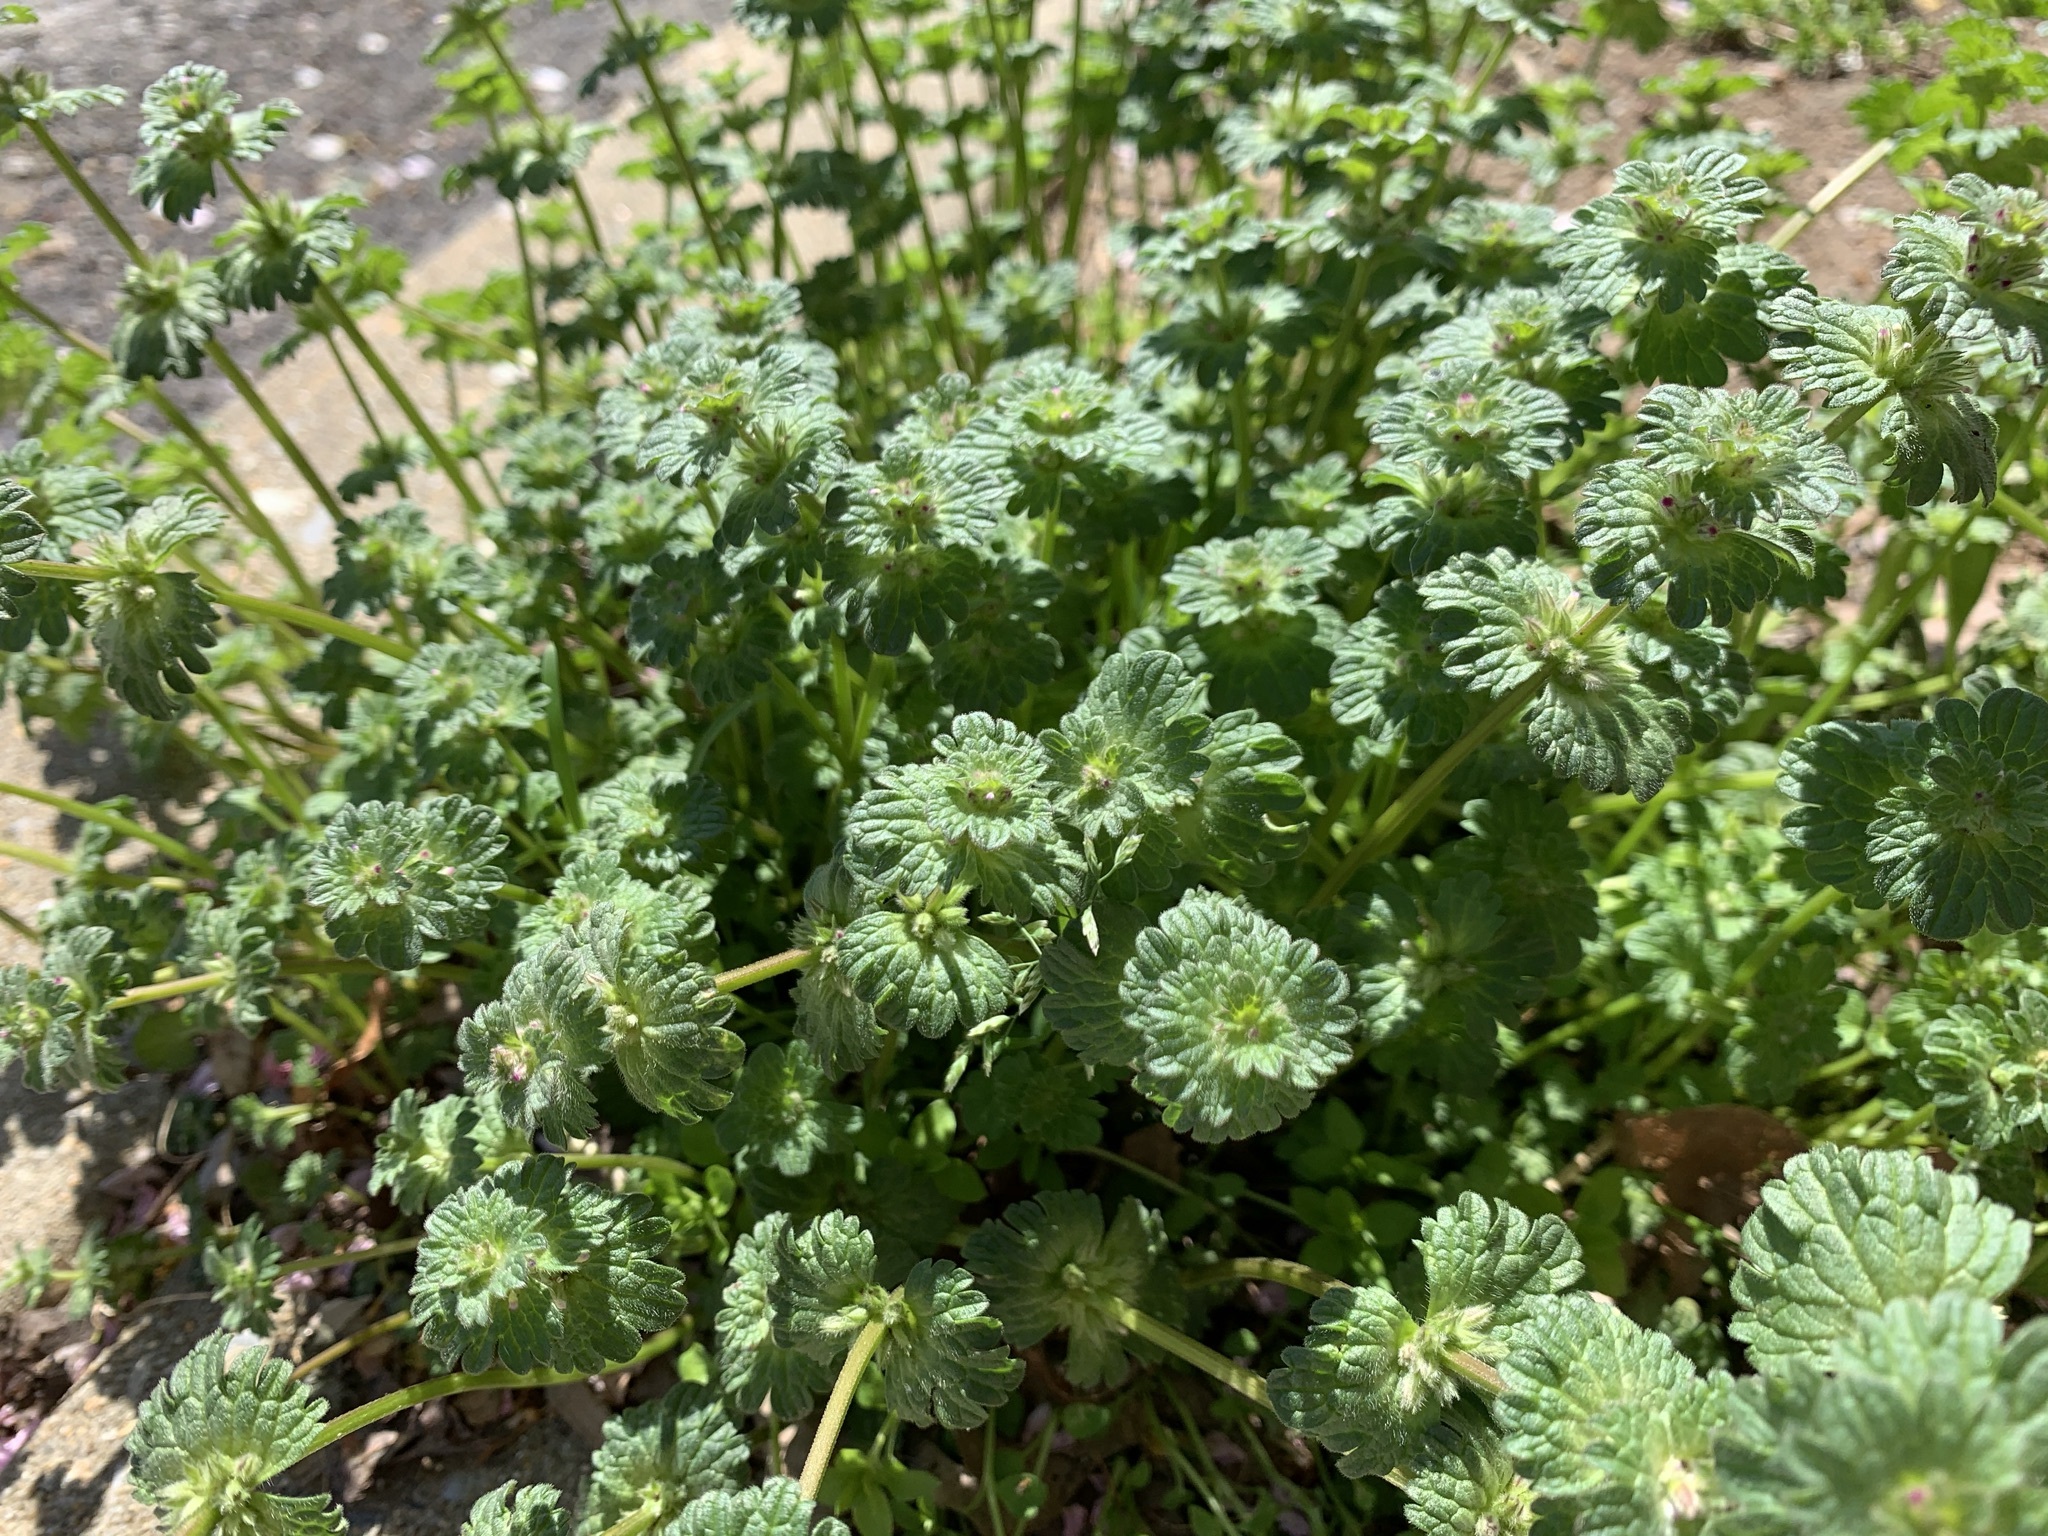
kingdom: Plantae
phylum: Tracheophyta
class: Magnoliopsida
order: Lamiales
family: Lamiaceae
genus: Lamium
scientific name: Lamium amplexicaule
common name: Henbit dead-nettle
